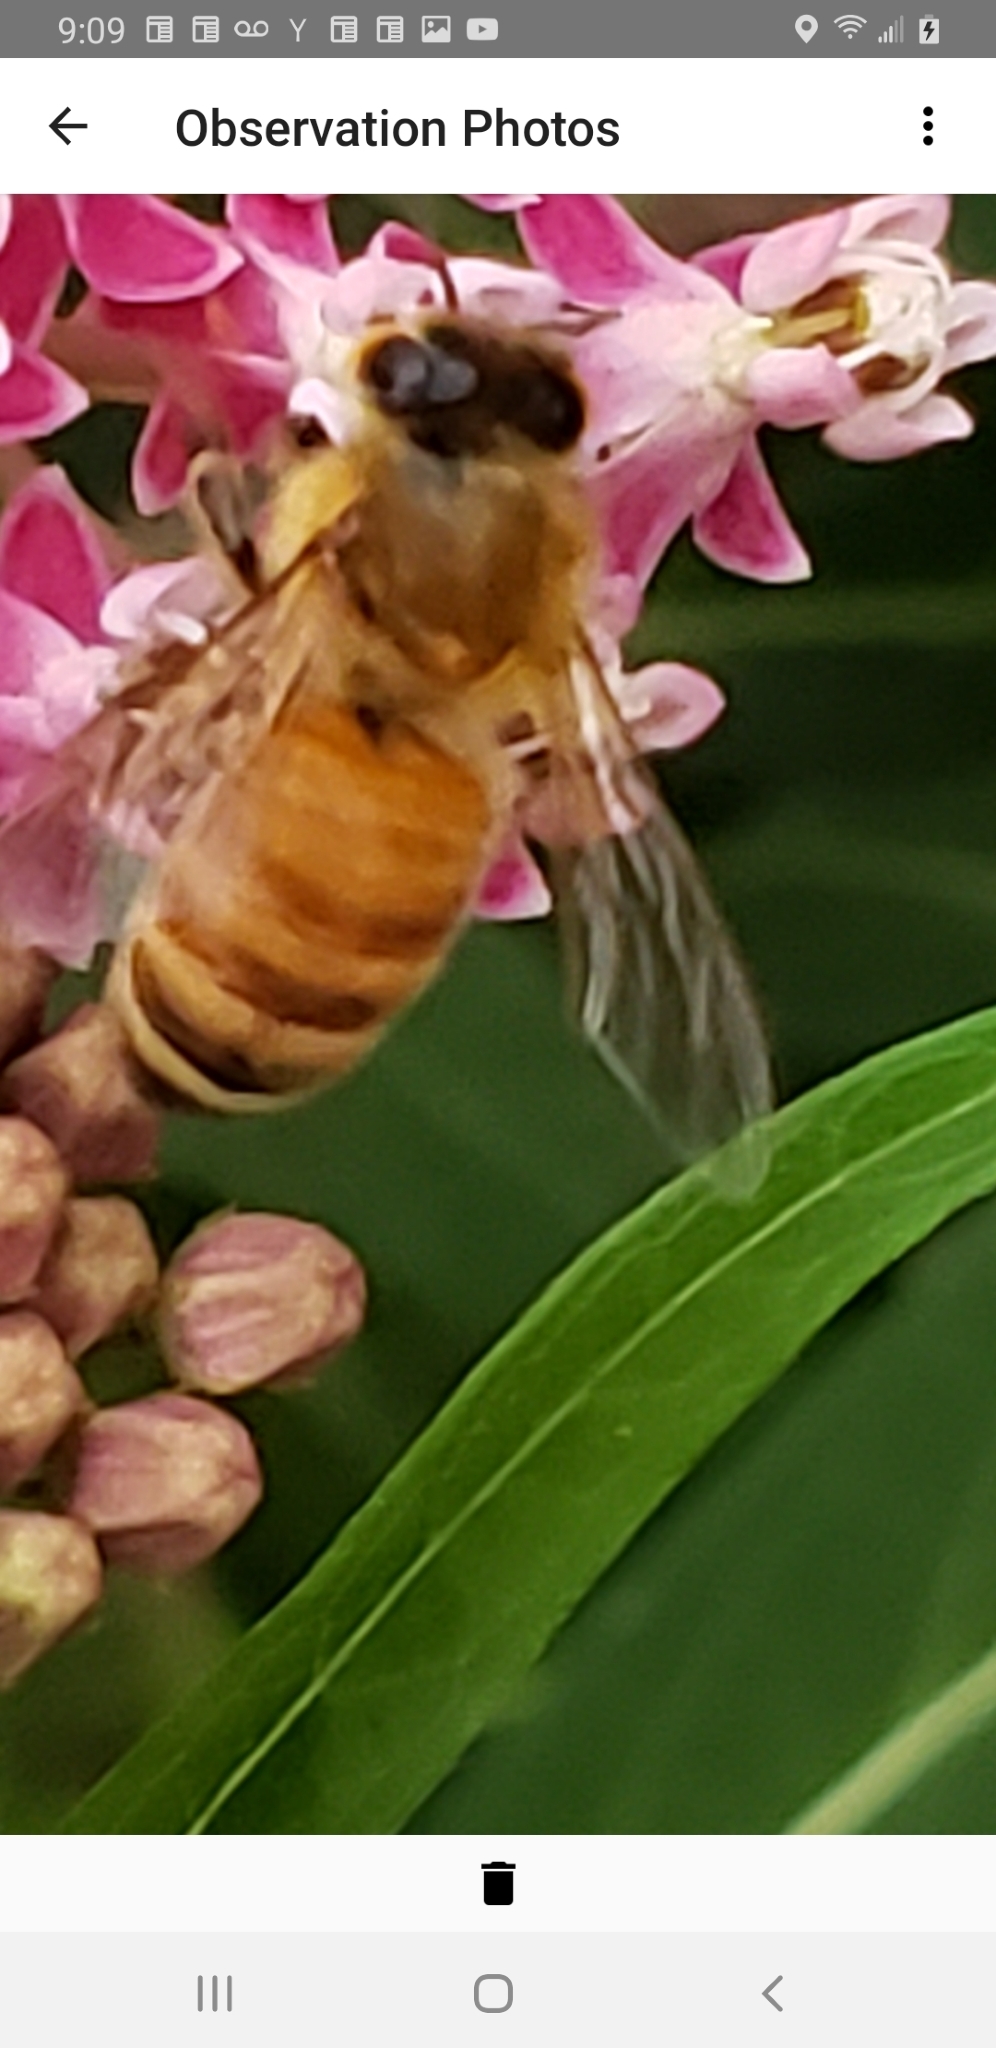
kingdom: Animalia
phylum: Arthropoda
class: Insecta
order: Hymenoptera
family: Apidae
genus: Apis
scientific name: Apis mellifera
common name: Honey bee
